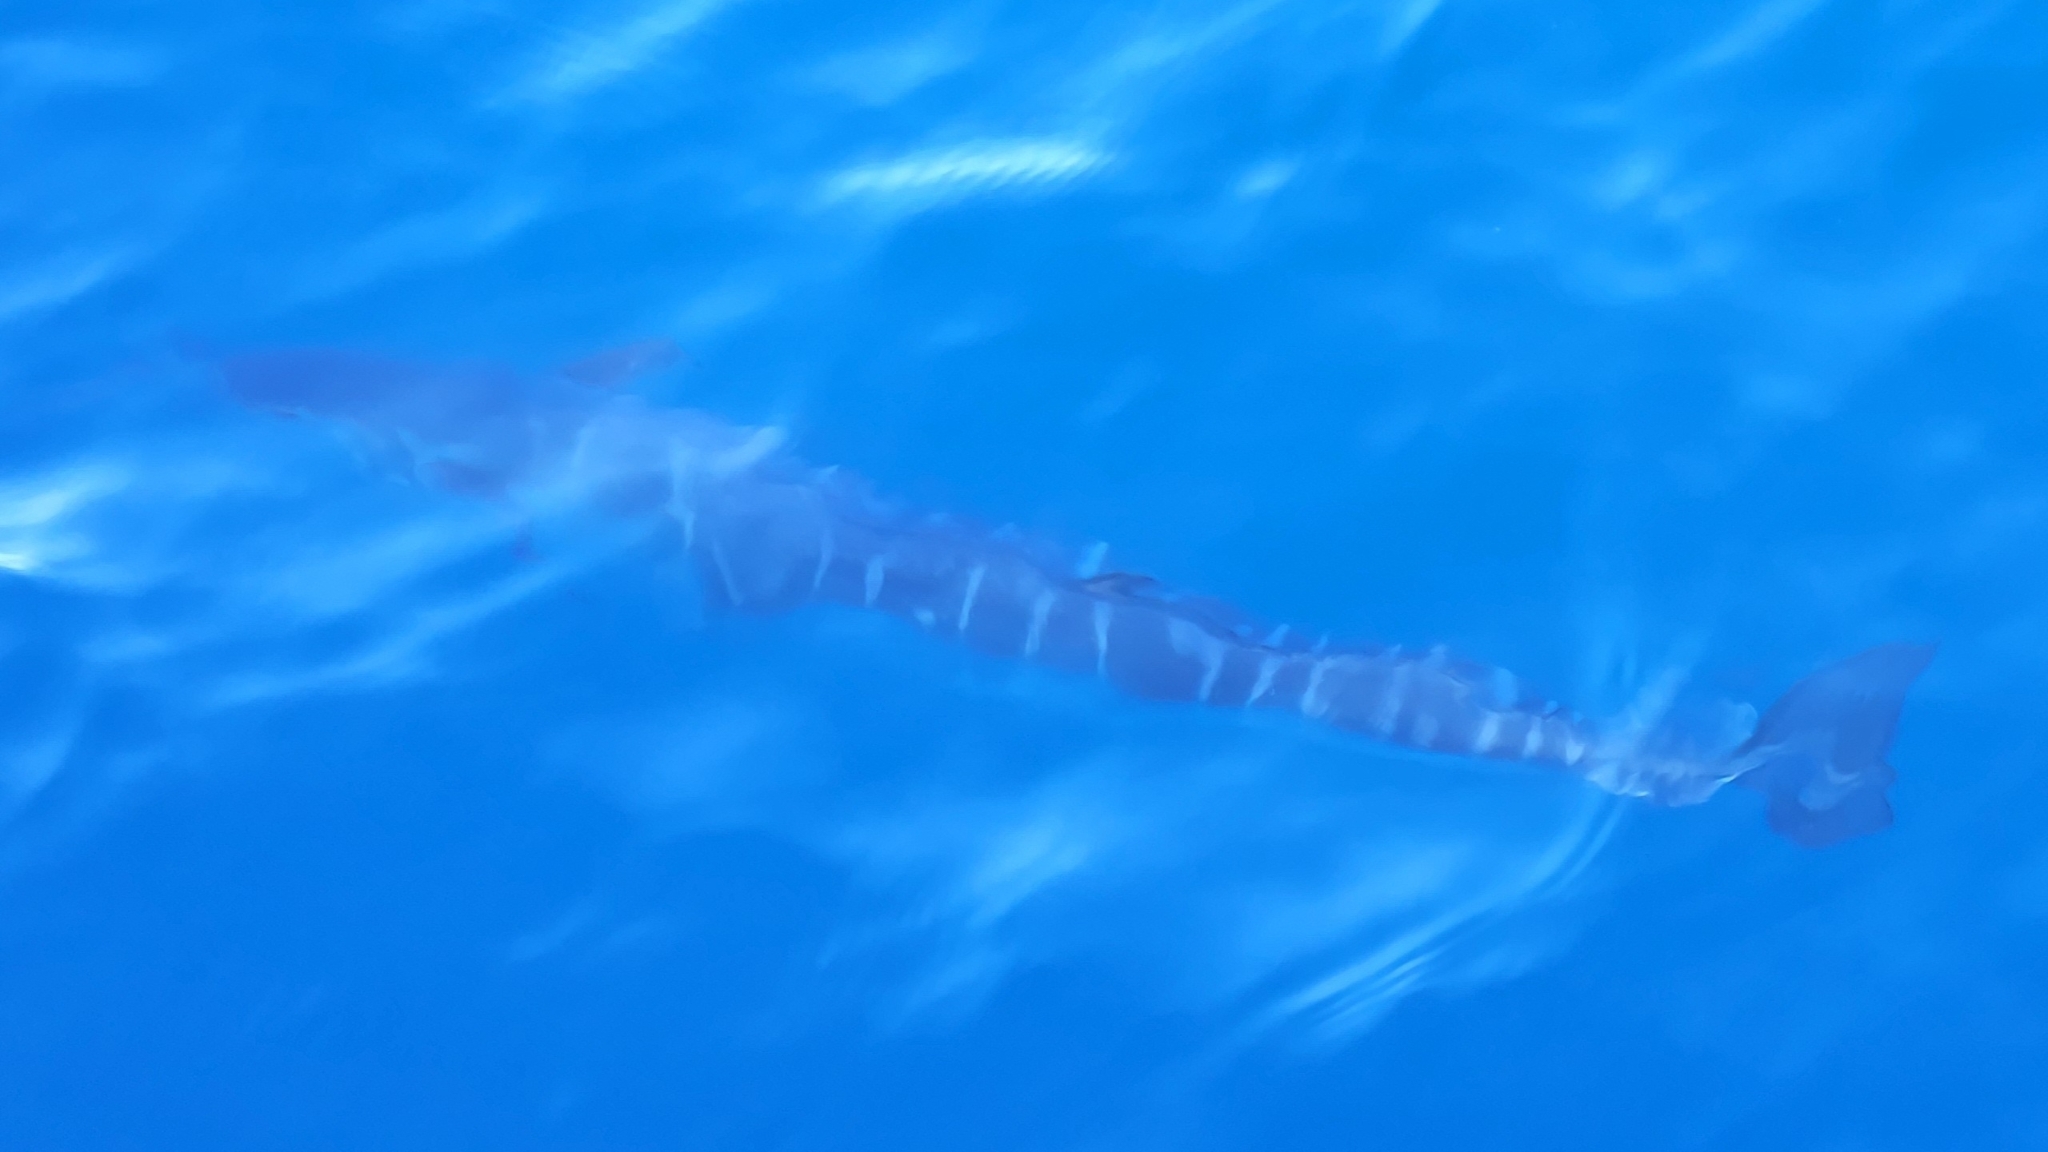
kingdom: Animalia
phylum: Chordata
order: Perciformes
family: Scombridae
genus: Acanthocybium
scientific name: Acanthocybium solandri
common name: Wahoo
